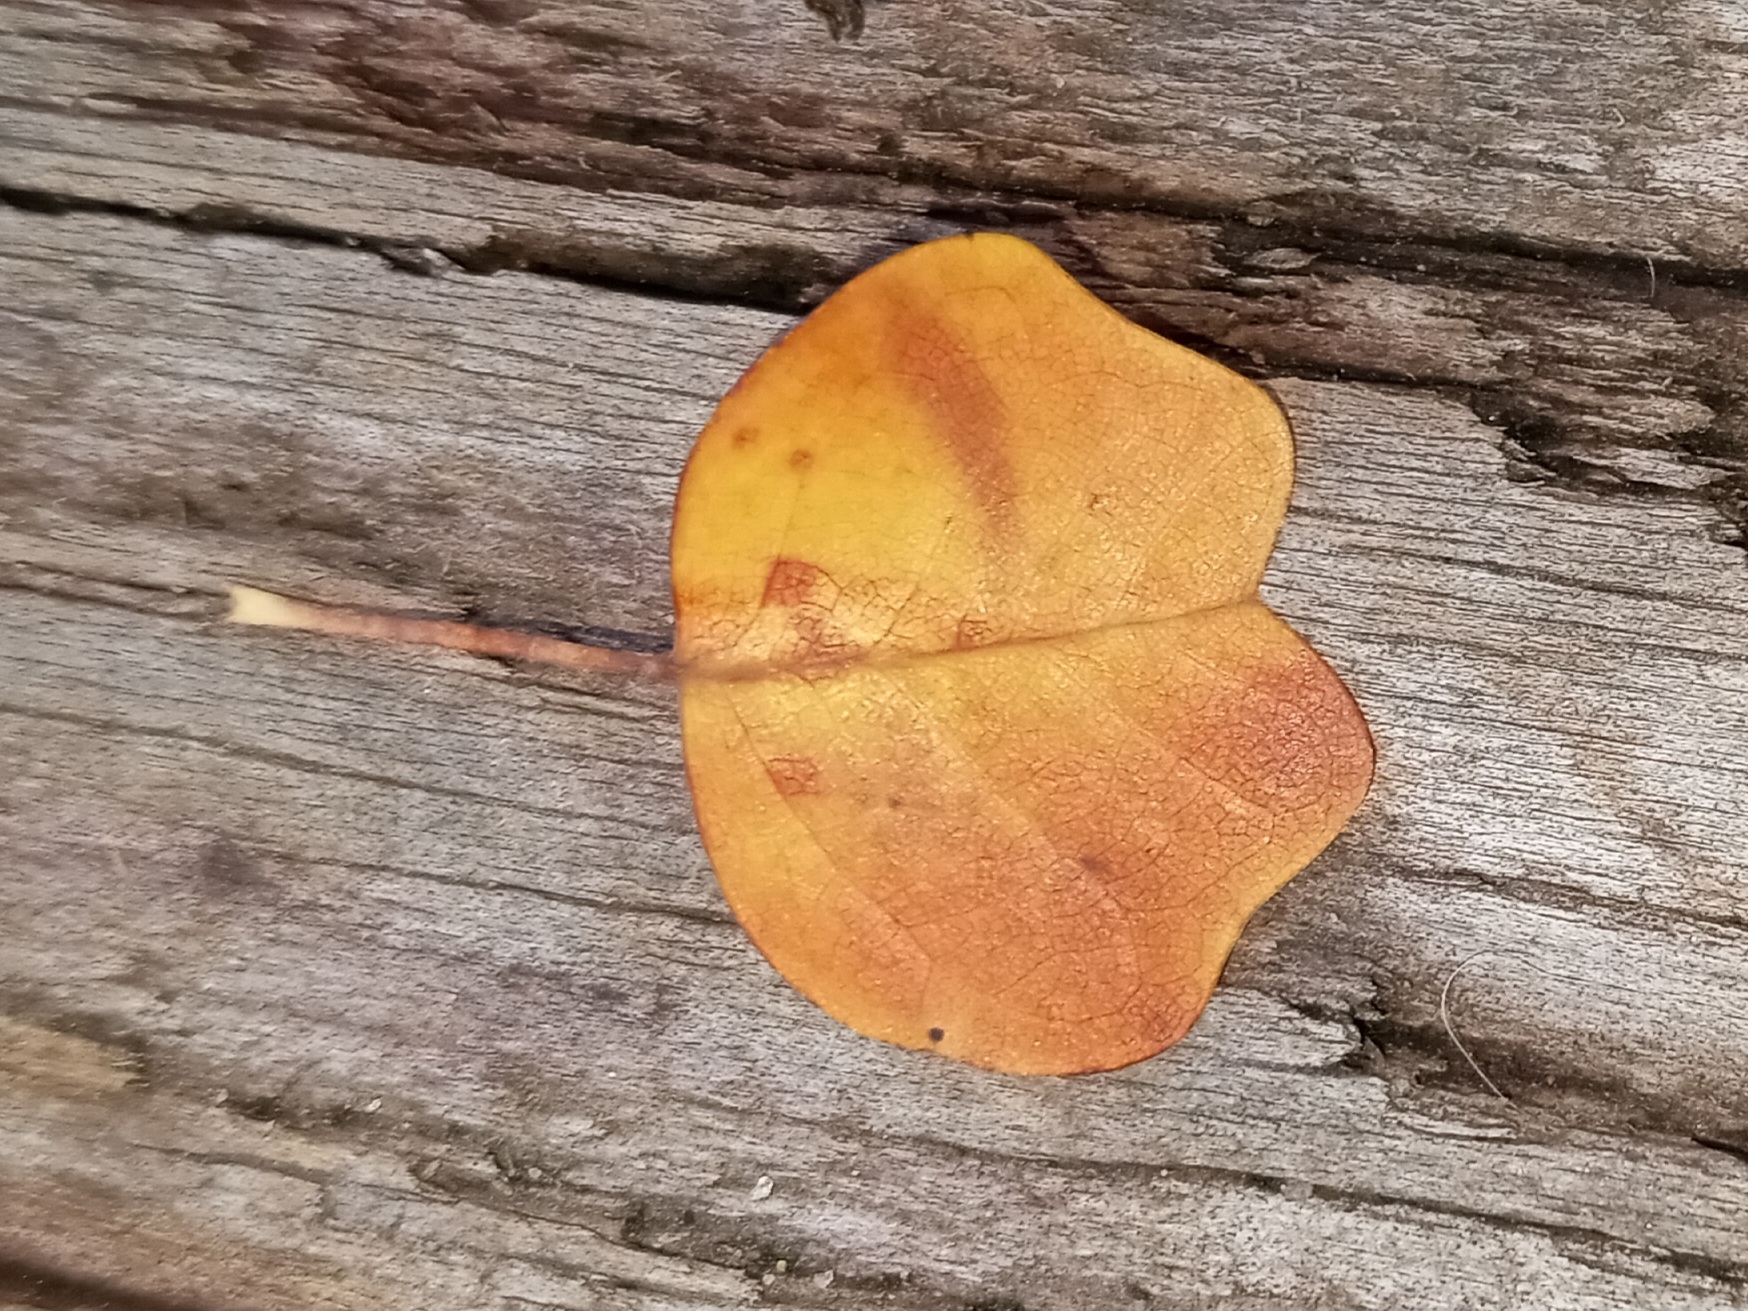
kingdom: Plantae
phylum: Tracheophyta
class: Magnoliopsida
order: Magnoliales
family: Magnoliaceae
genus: Liriodendron
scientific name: Liriodendron tulipifera
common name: Tulip tree
